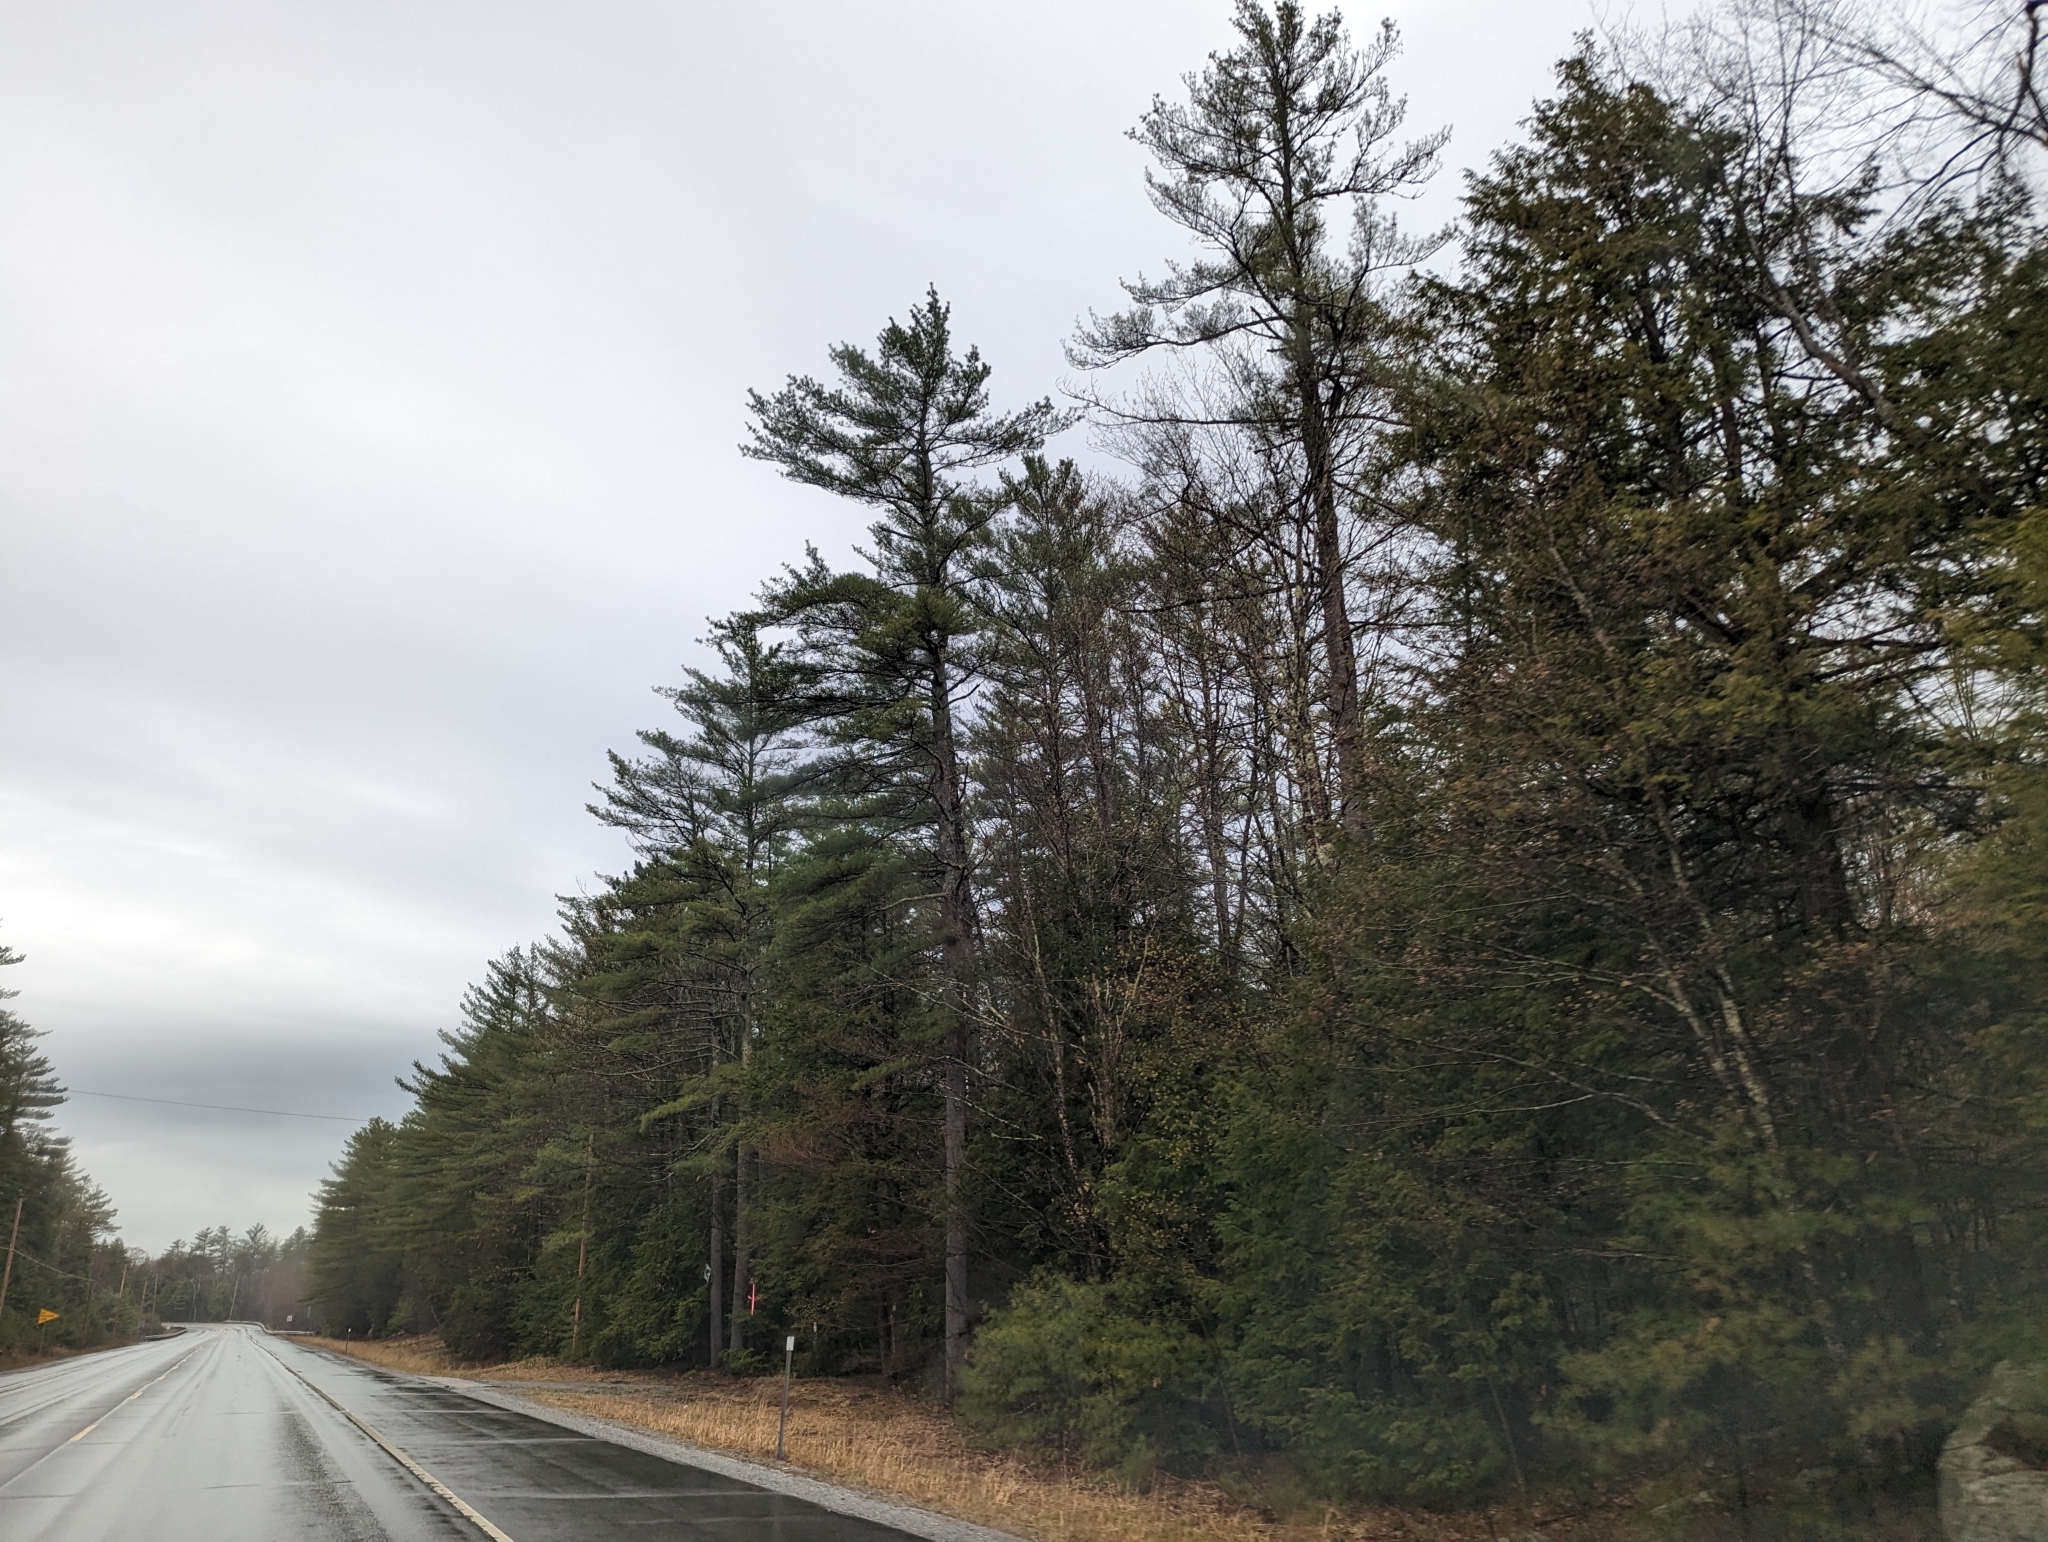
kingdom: Plantae
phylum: Tracheophyta
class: Pinopsida
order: Pinales
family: Pinaceae
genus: Pinus
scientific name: Pinus strobus
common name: Weymouth pine
